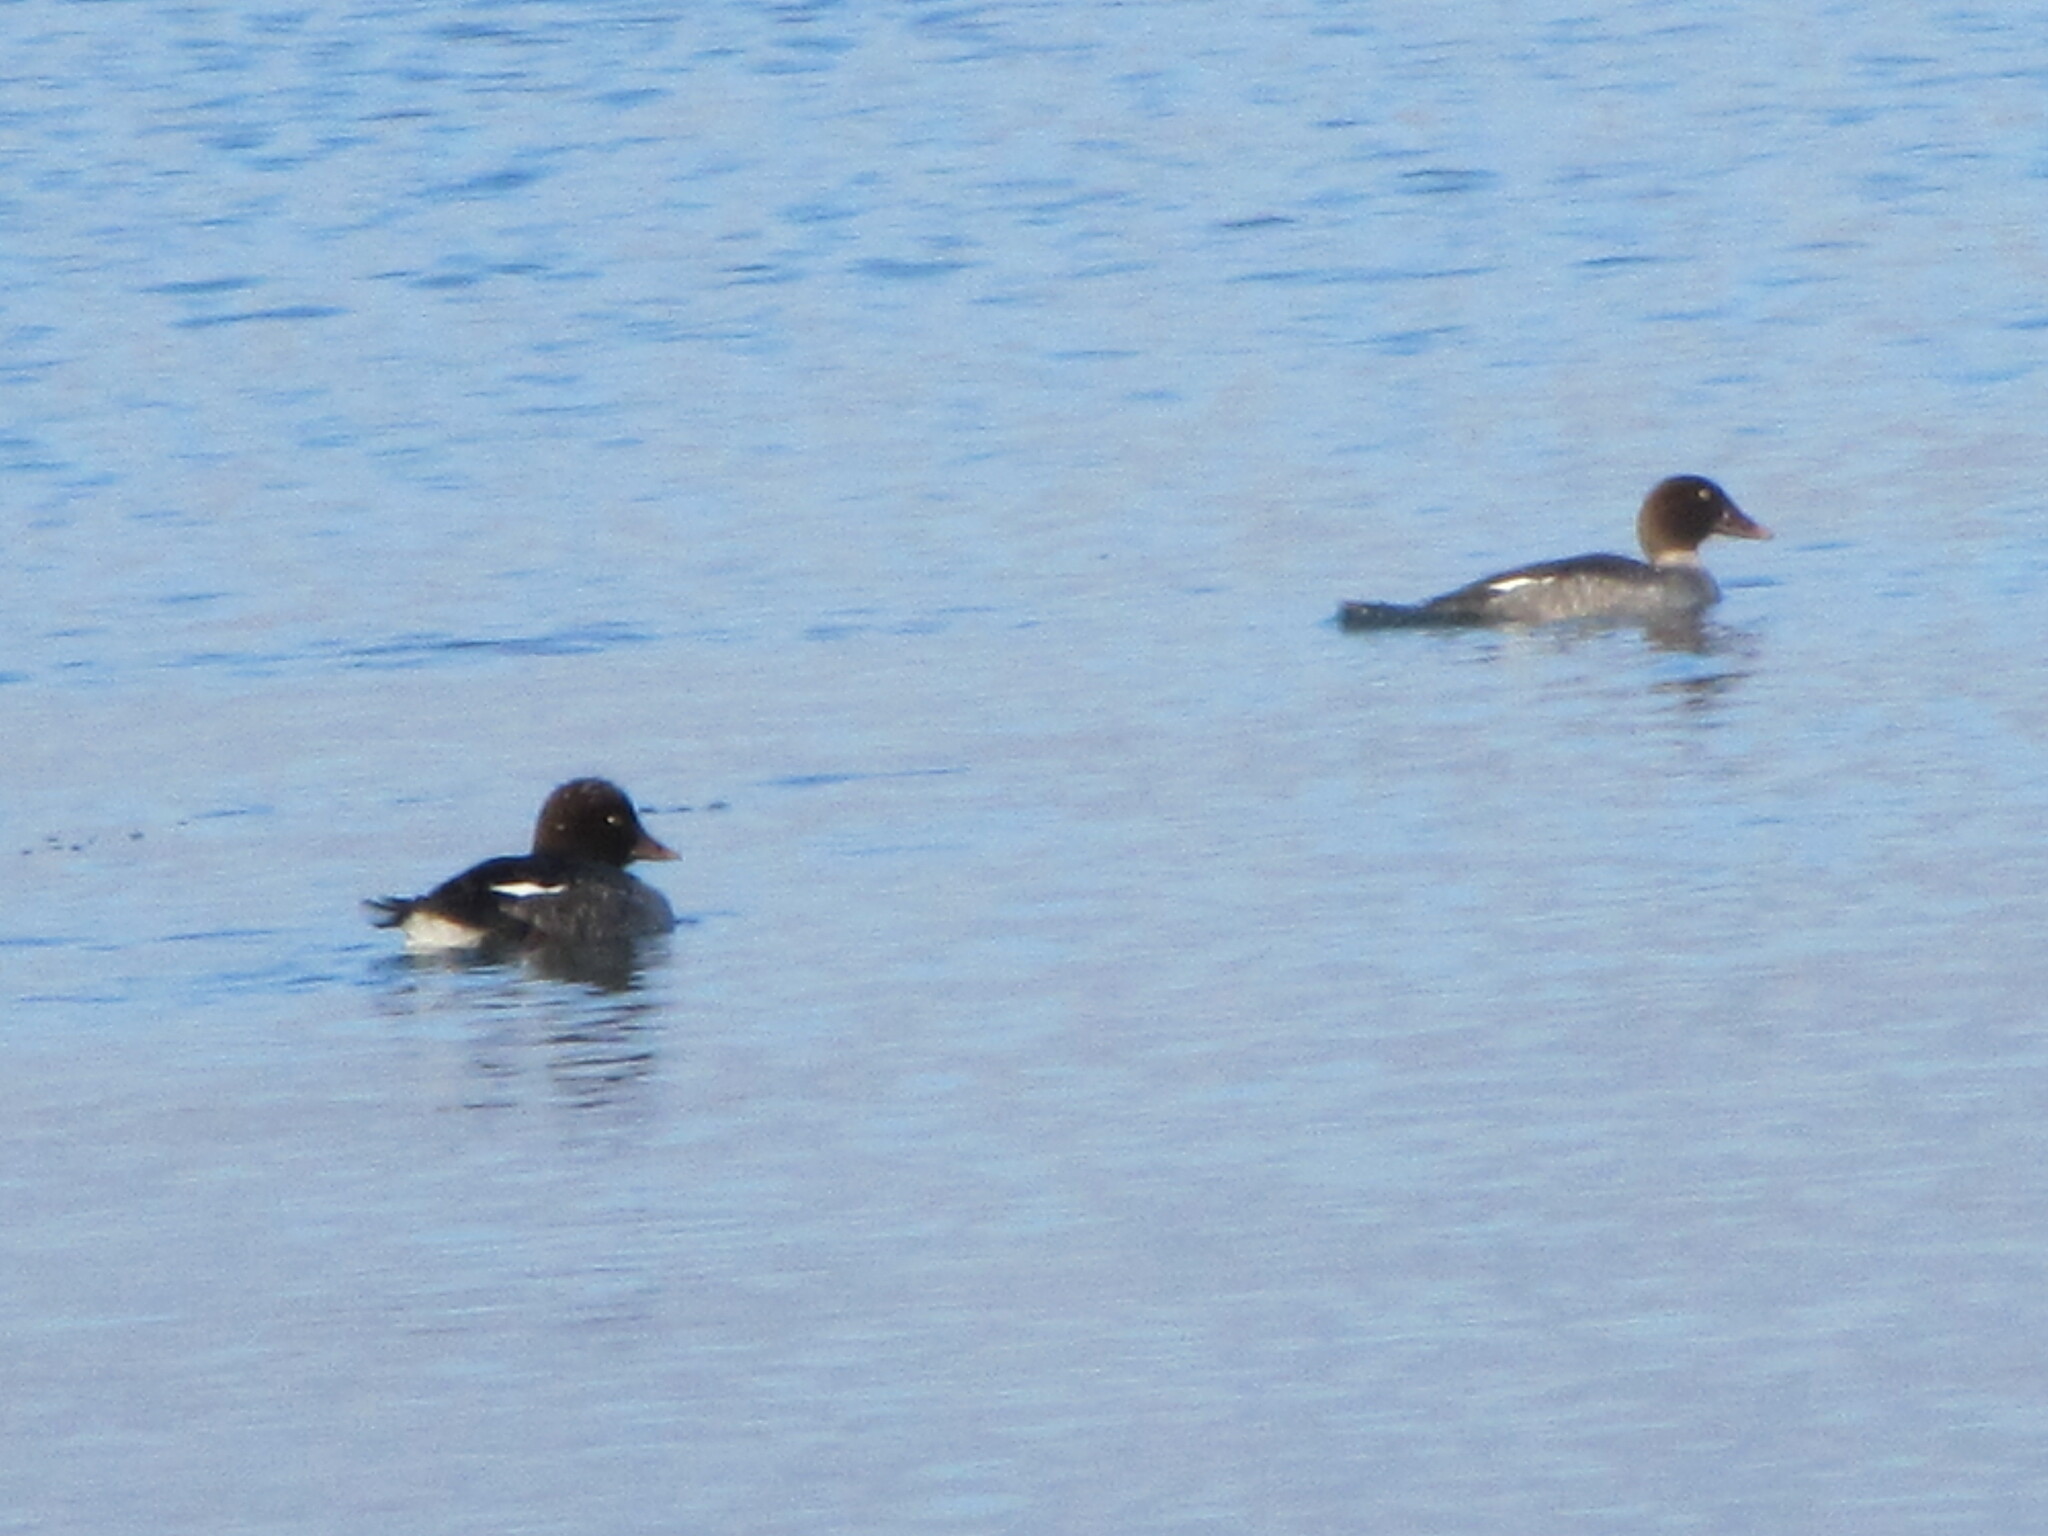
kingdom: Animalia
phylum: Chordata
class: Aves
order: Anseriformes
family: Anatidae
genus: Bucephala
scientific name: Bucephala clangula
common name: Common goldeneye
